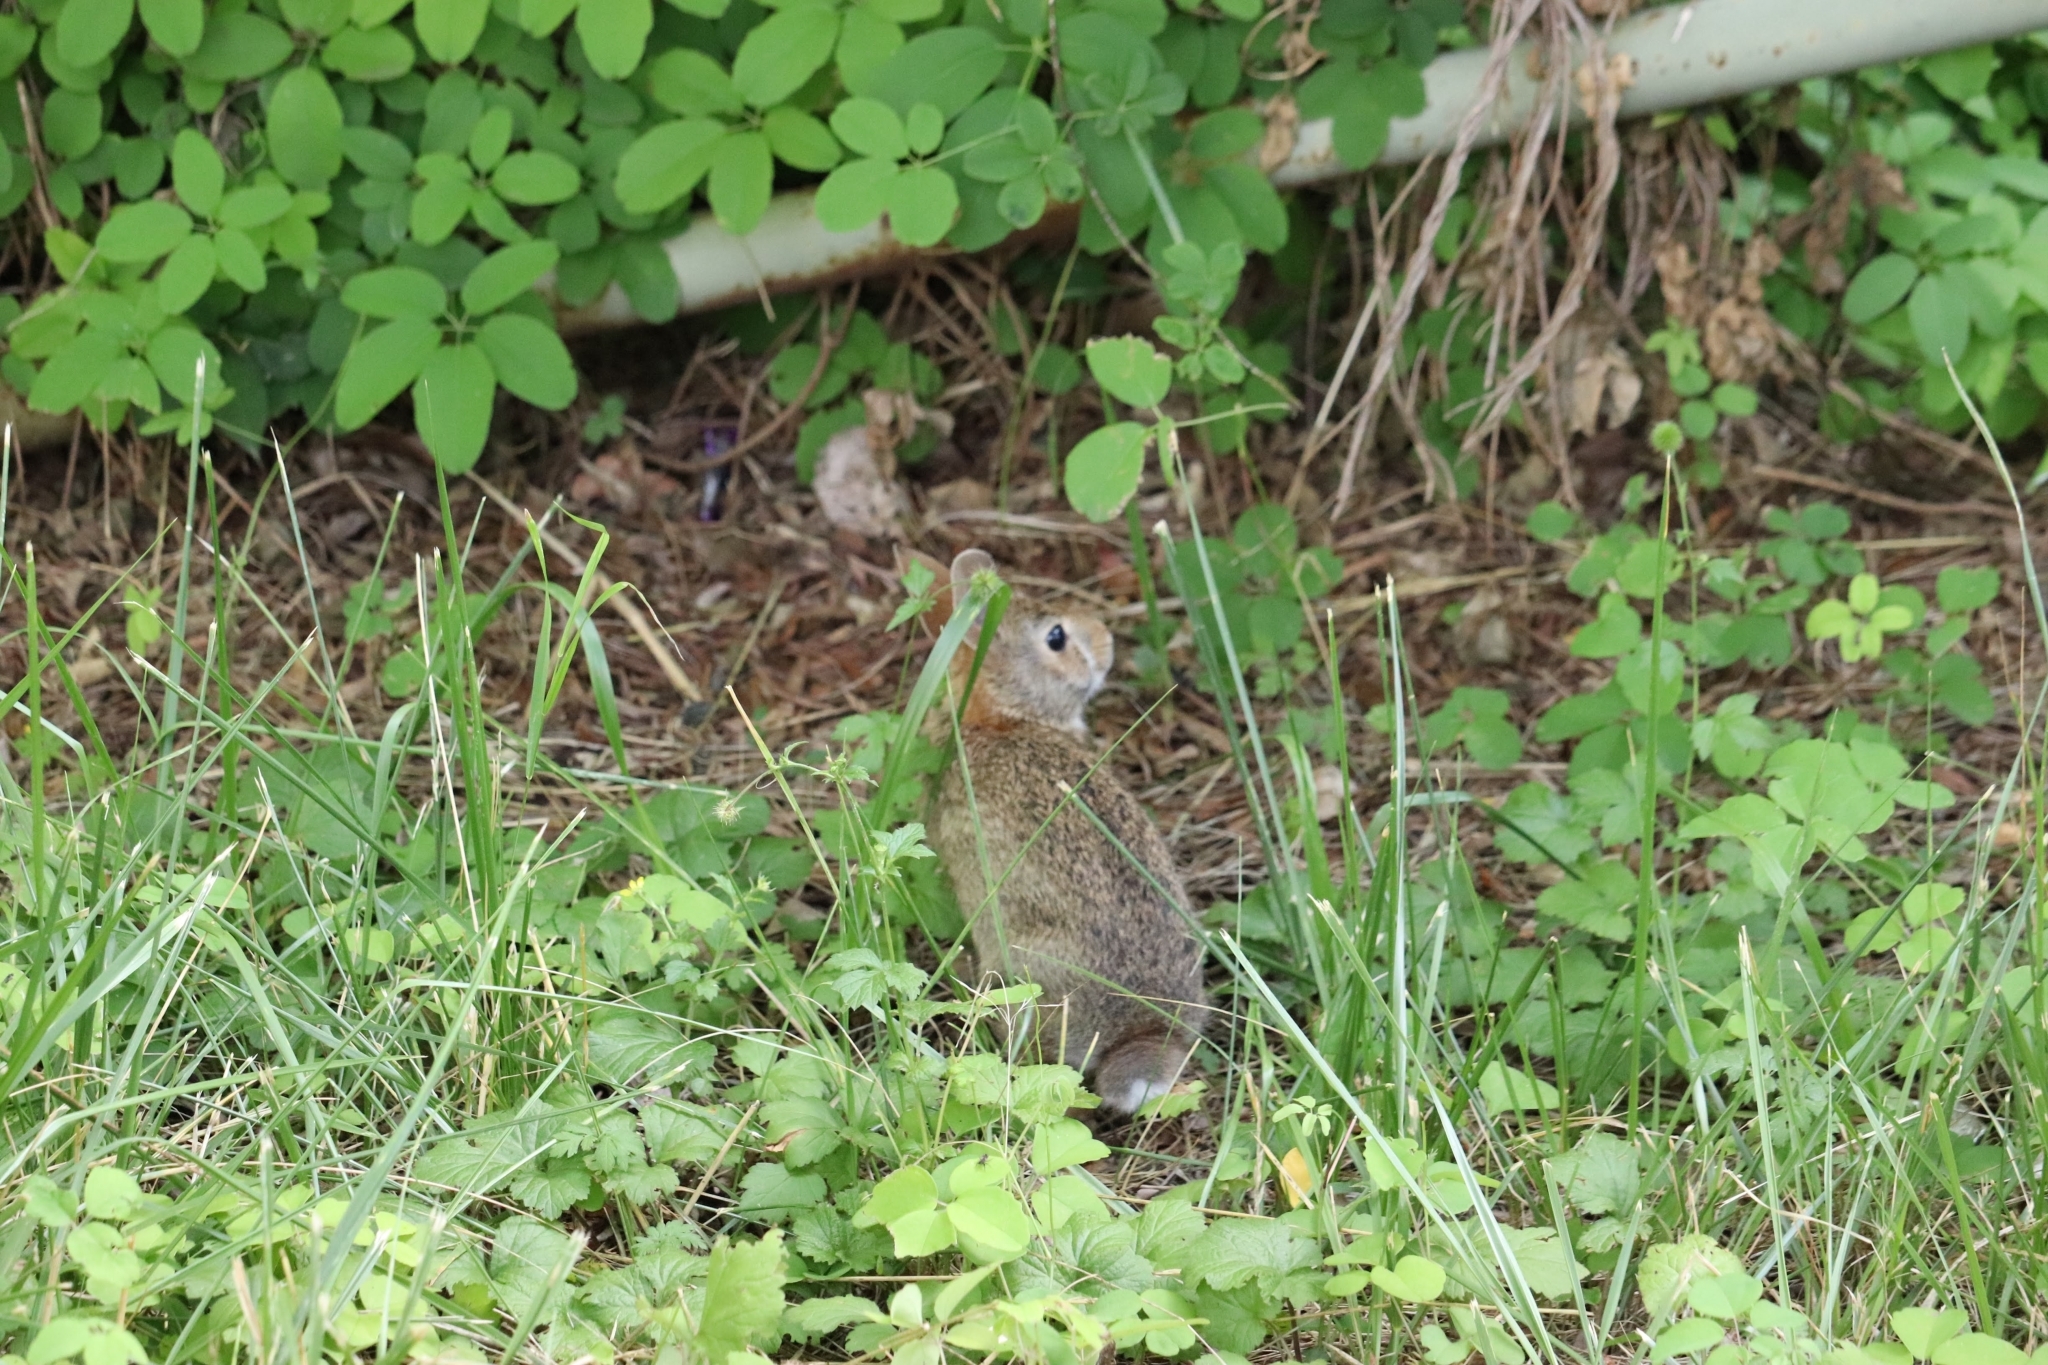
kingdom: Animalia
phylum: Chordata
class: Mammalia
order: Lagomorpha
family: Leporidae
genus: Sylvilagus
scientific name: Sylvilagus floridanus
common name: Eastern cottontail
